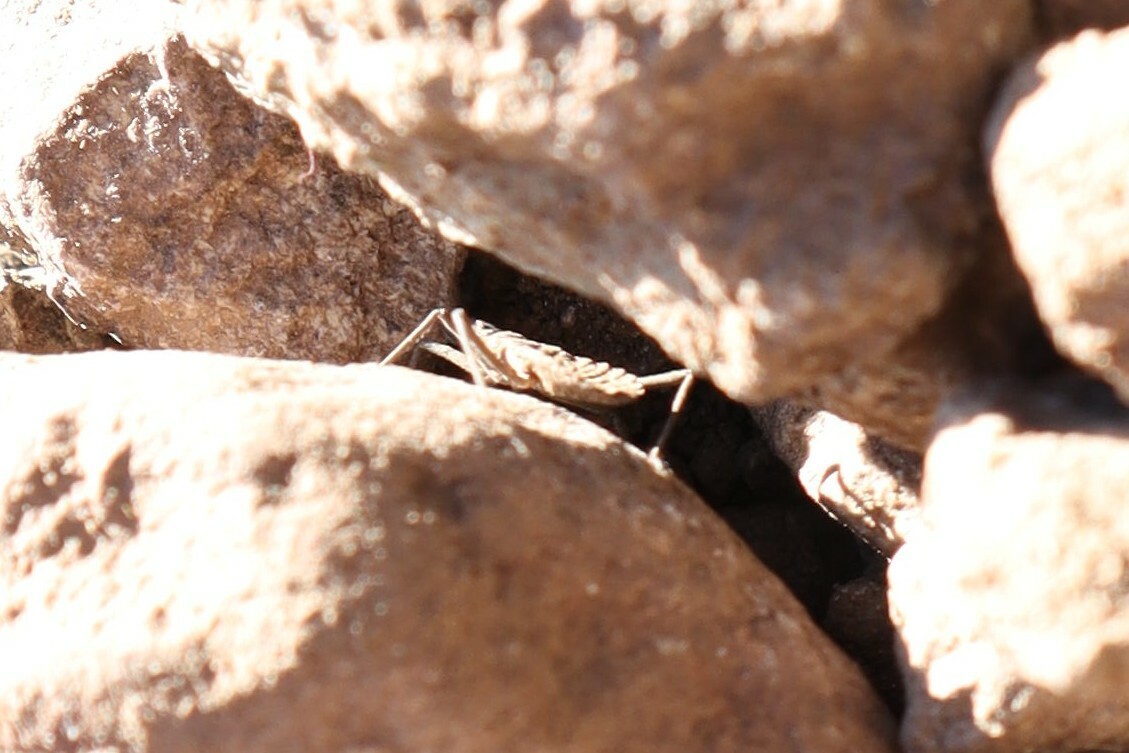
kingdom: Animalia
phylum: Arthropoda
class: Insecta
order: Hemiptera
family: Reduviidae
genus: Mepraia
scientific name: Mepraia spinolai
